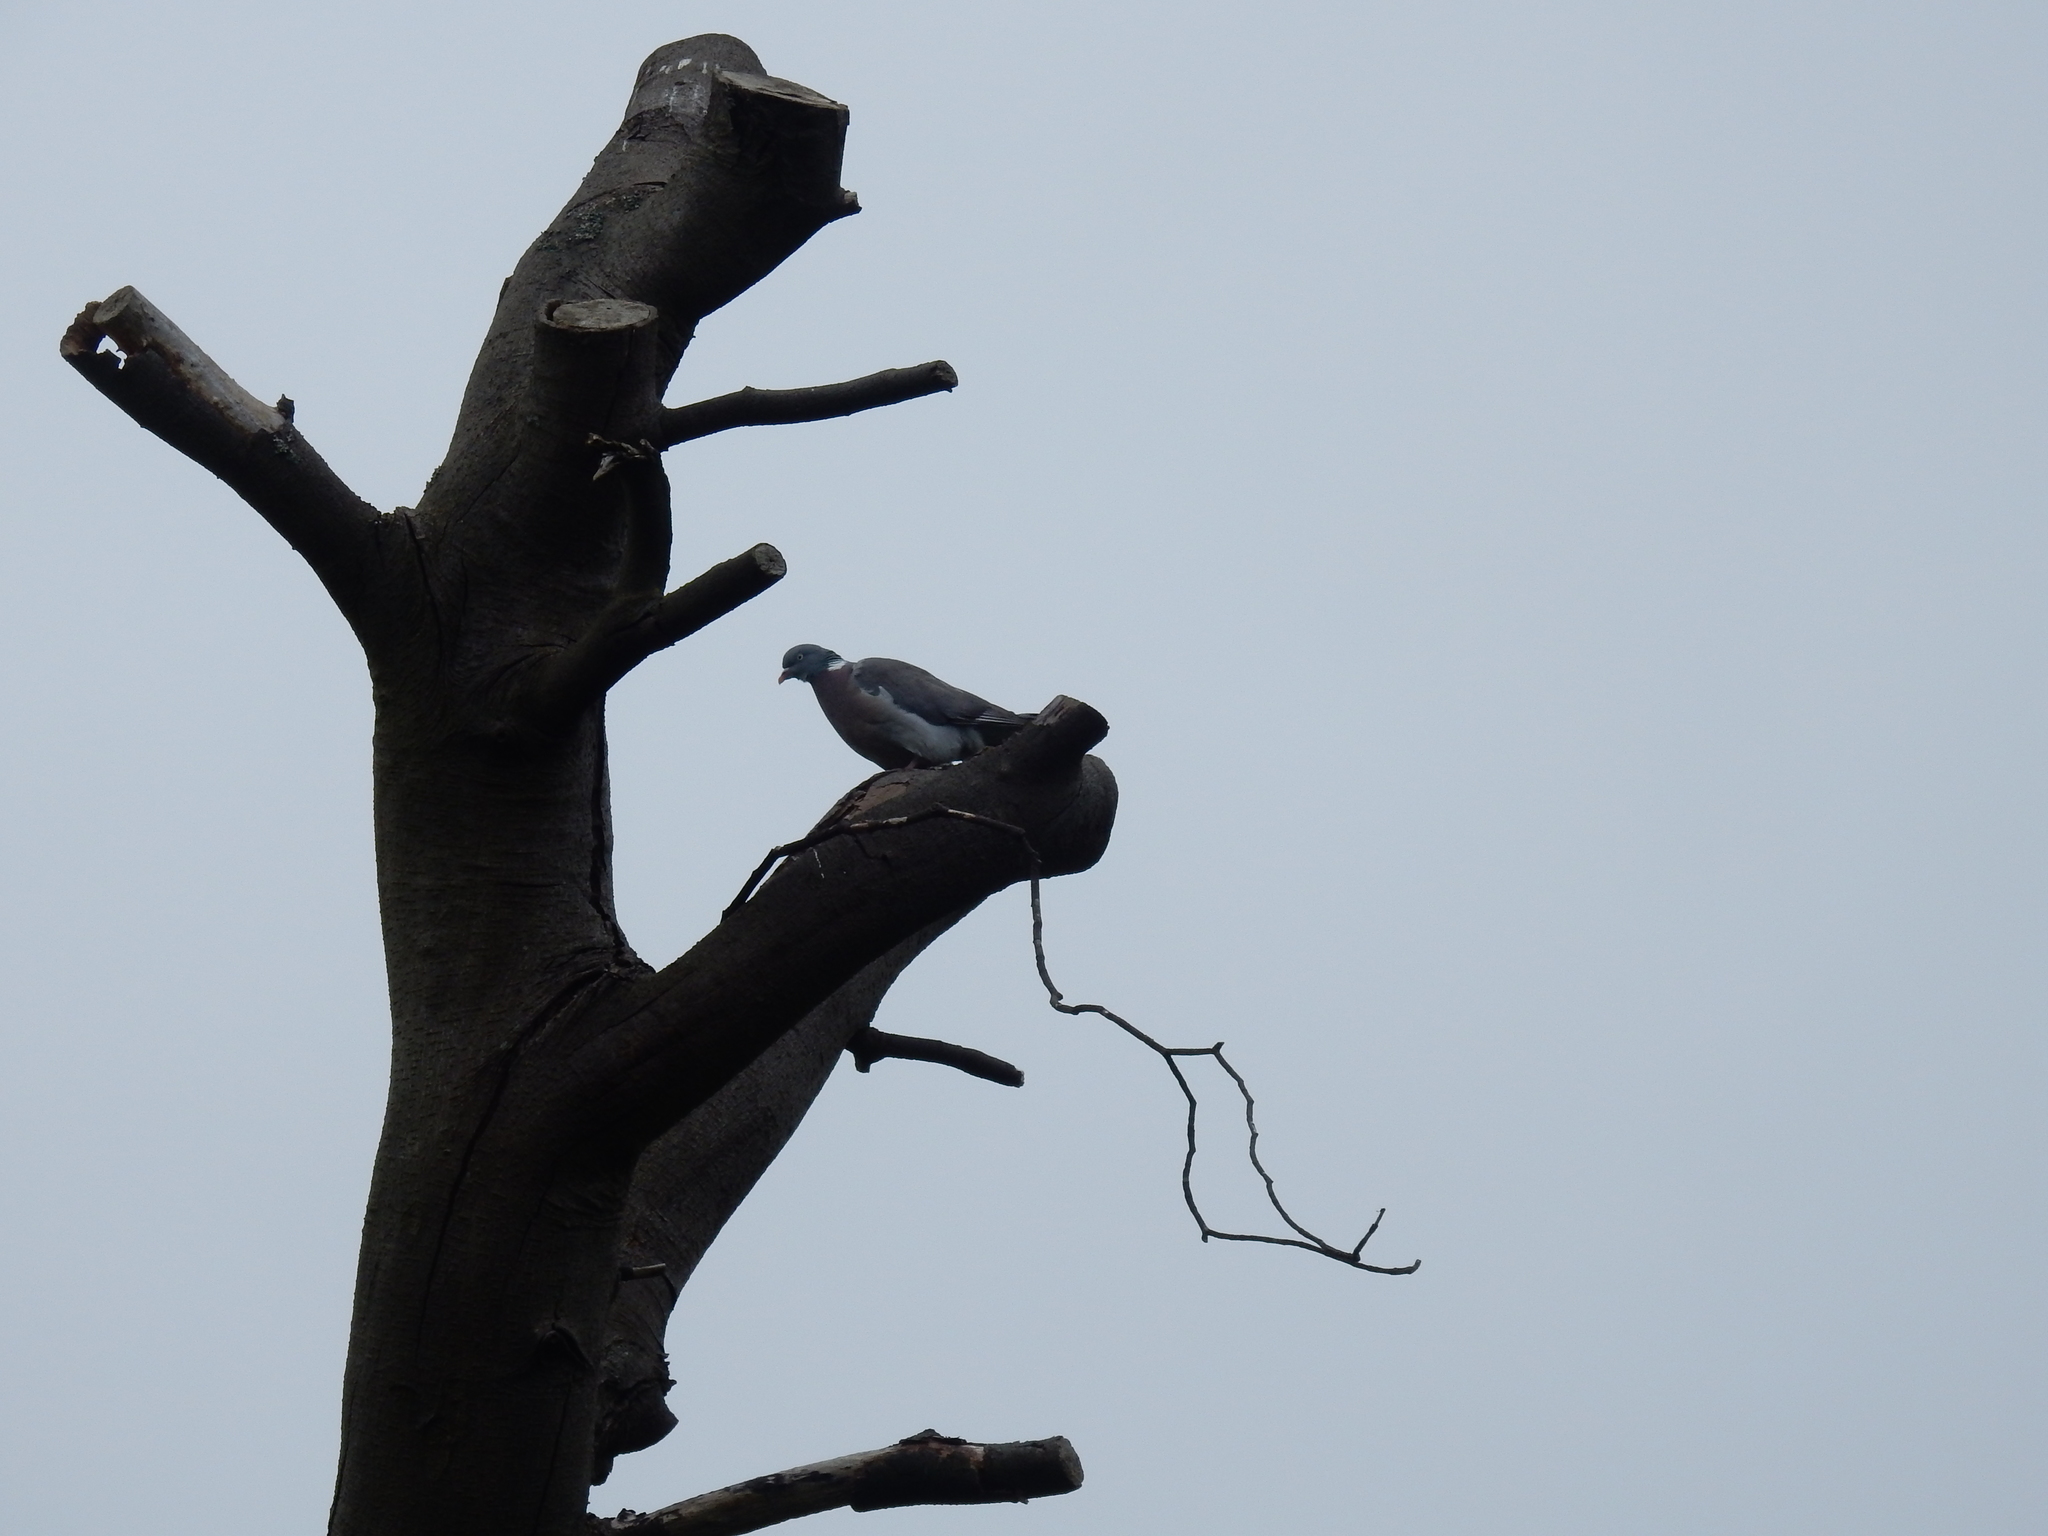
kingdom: Animalia
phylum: Chordata
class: Aves
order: Columbiformes
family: Columbidae
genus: Columba
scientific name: Columba palumbus
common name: Common wood pigeon
